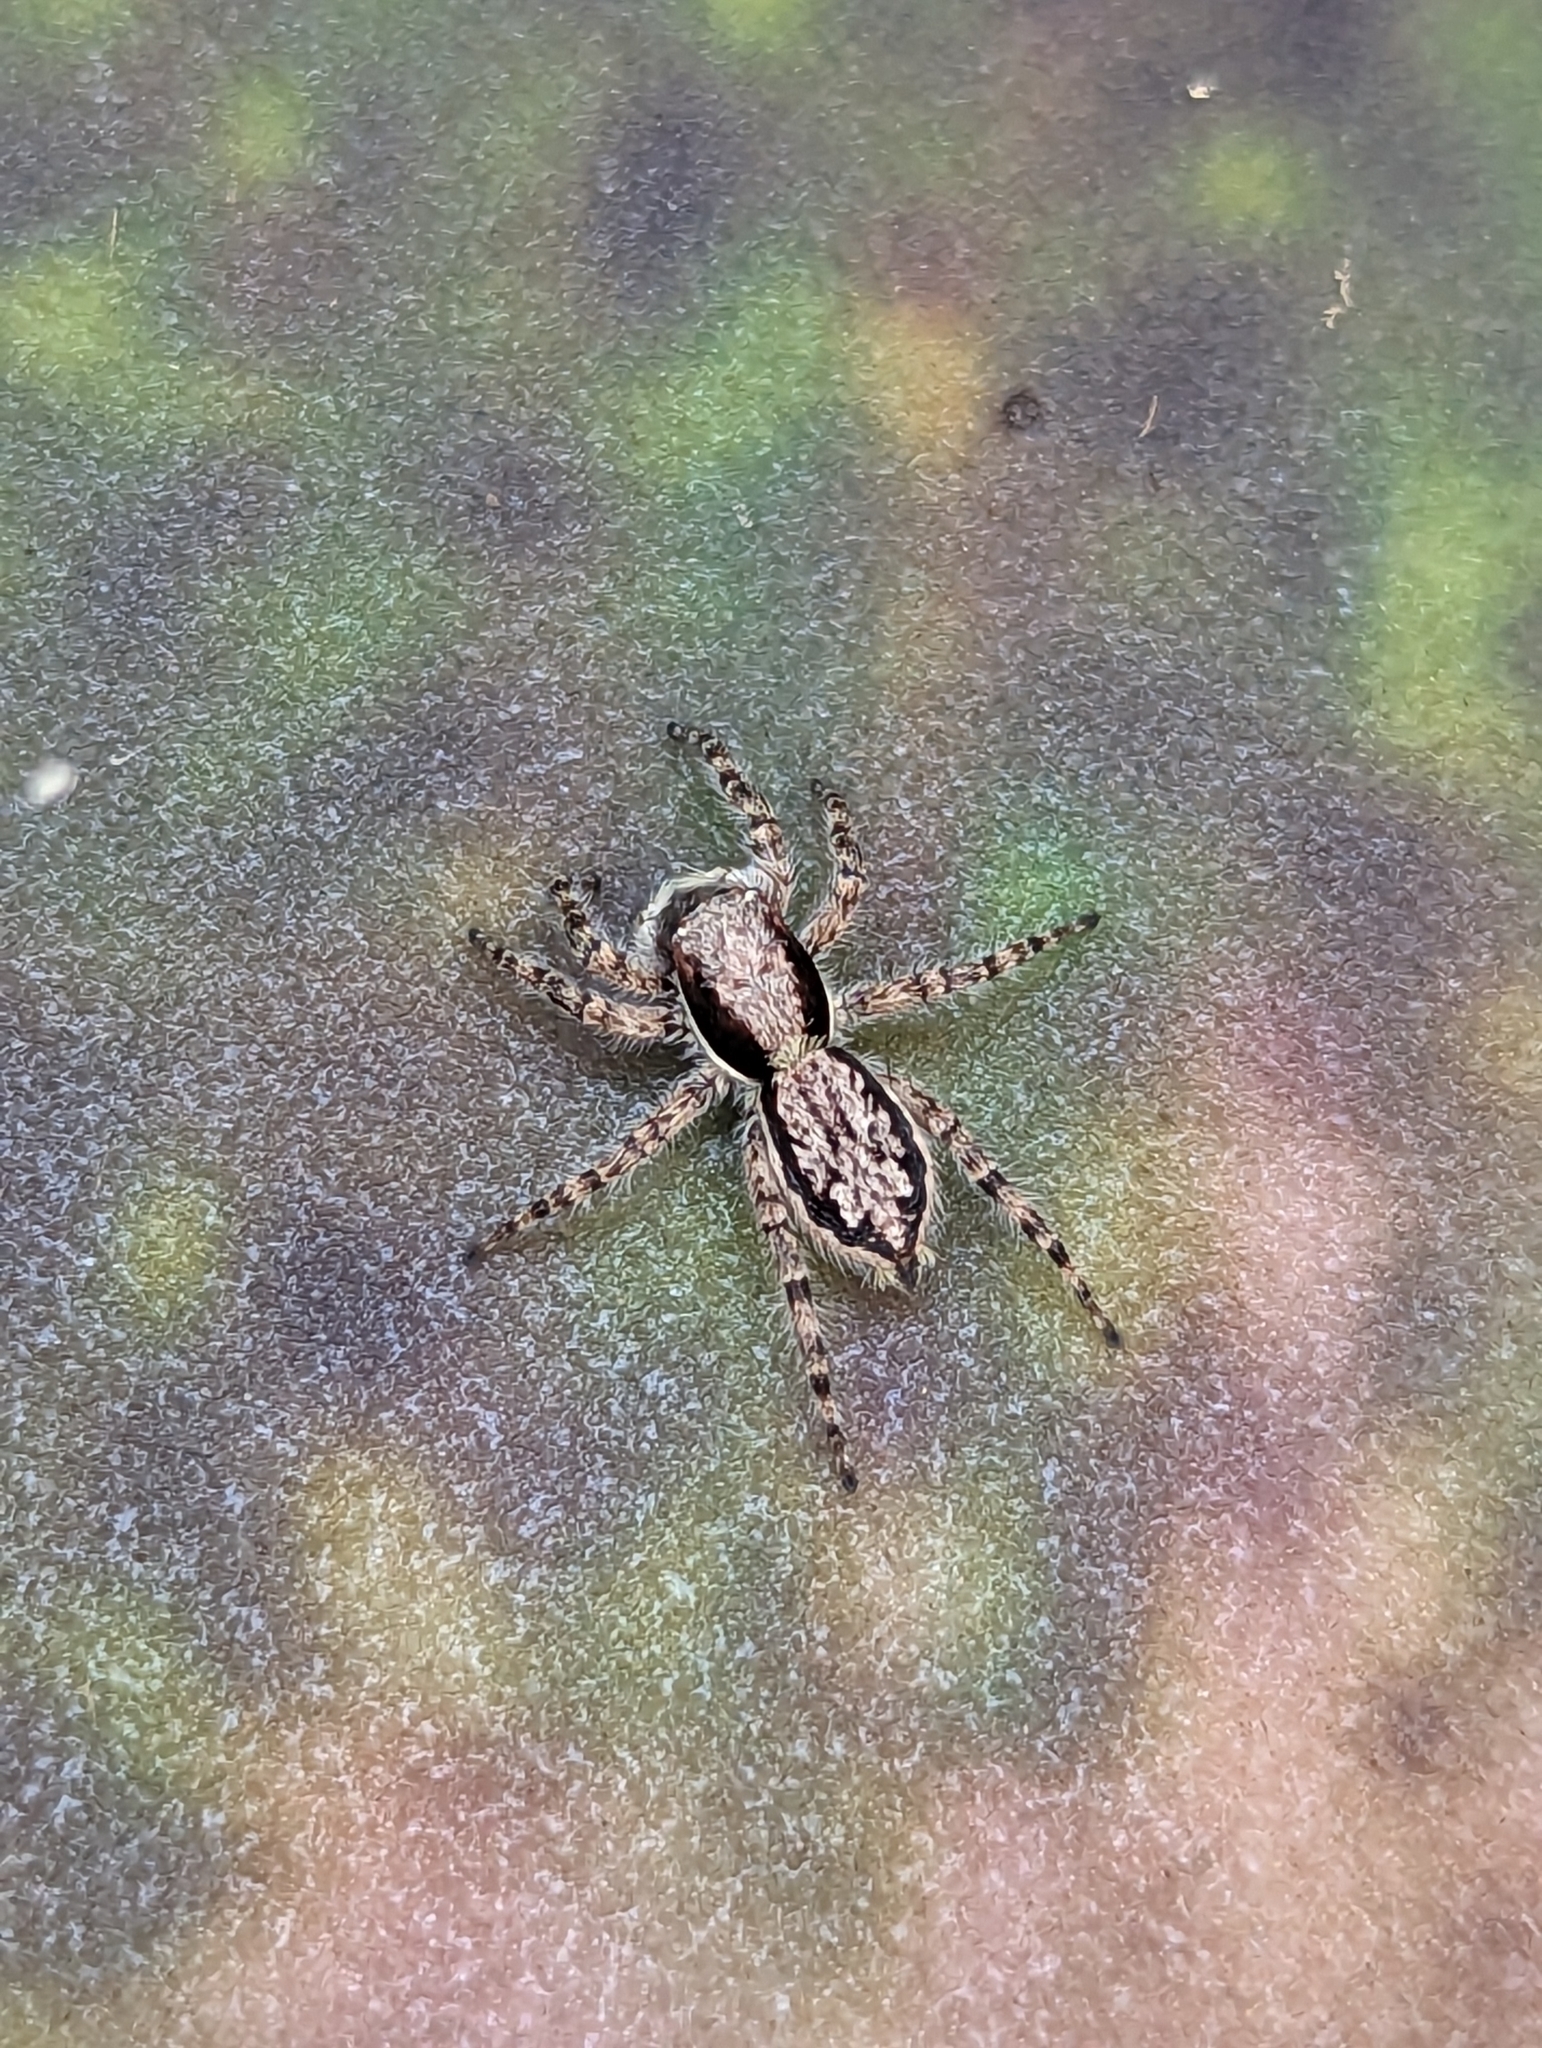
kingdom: Animalia
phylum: Arthropoda
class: Arachnida
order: Araneae
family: Salticidae
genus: Menemerus
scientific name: Menemerus bivittatus
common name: Gray wall jumper
